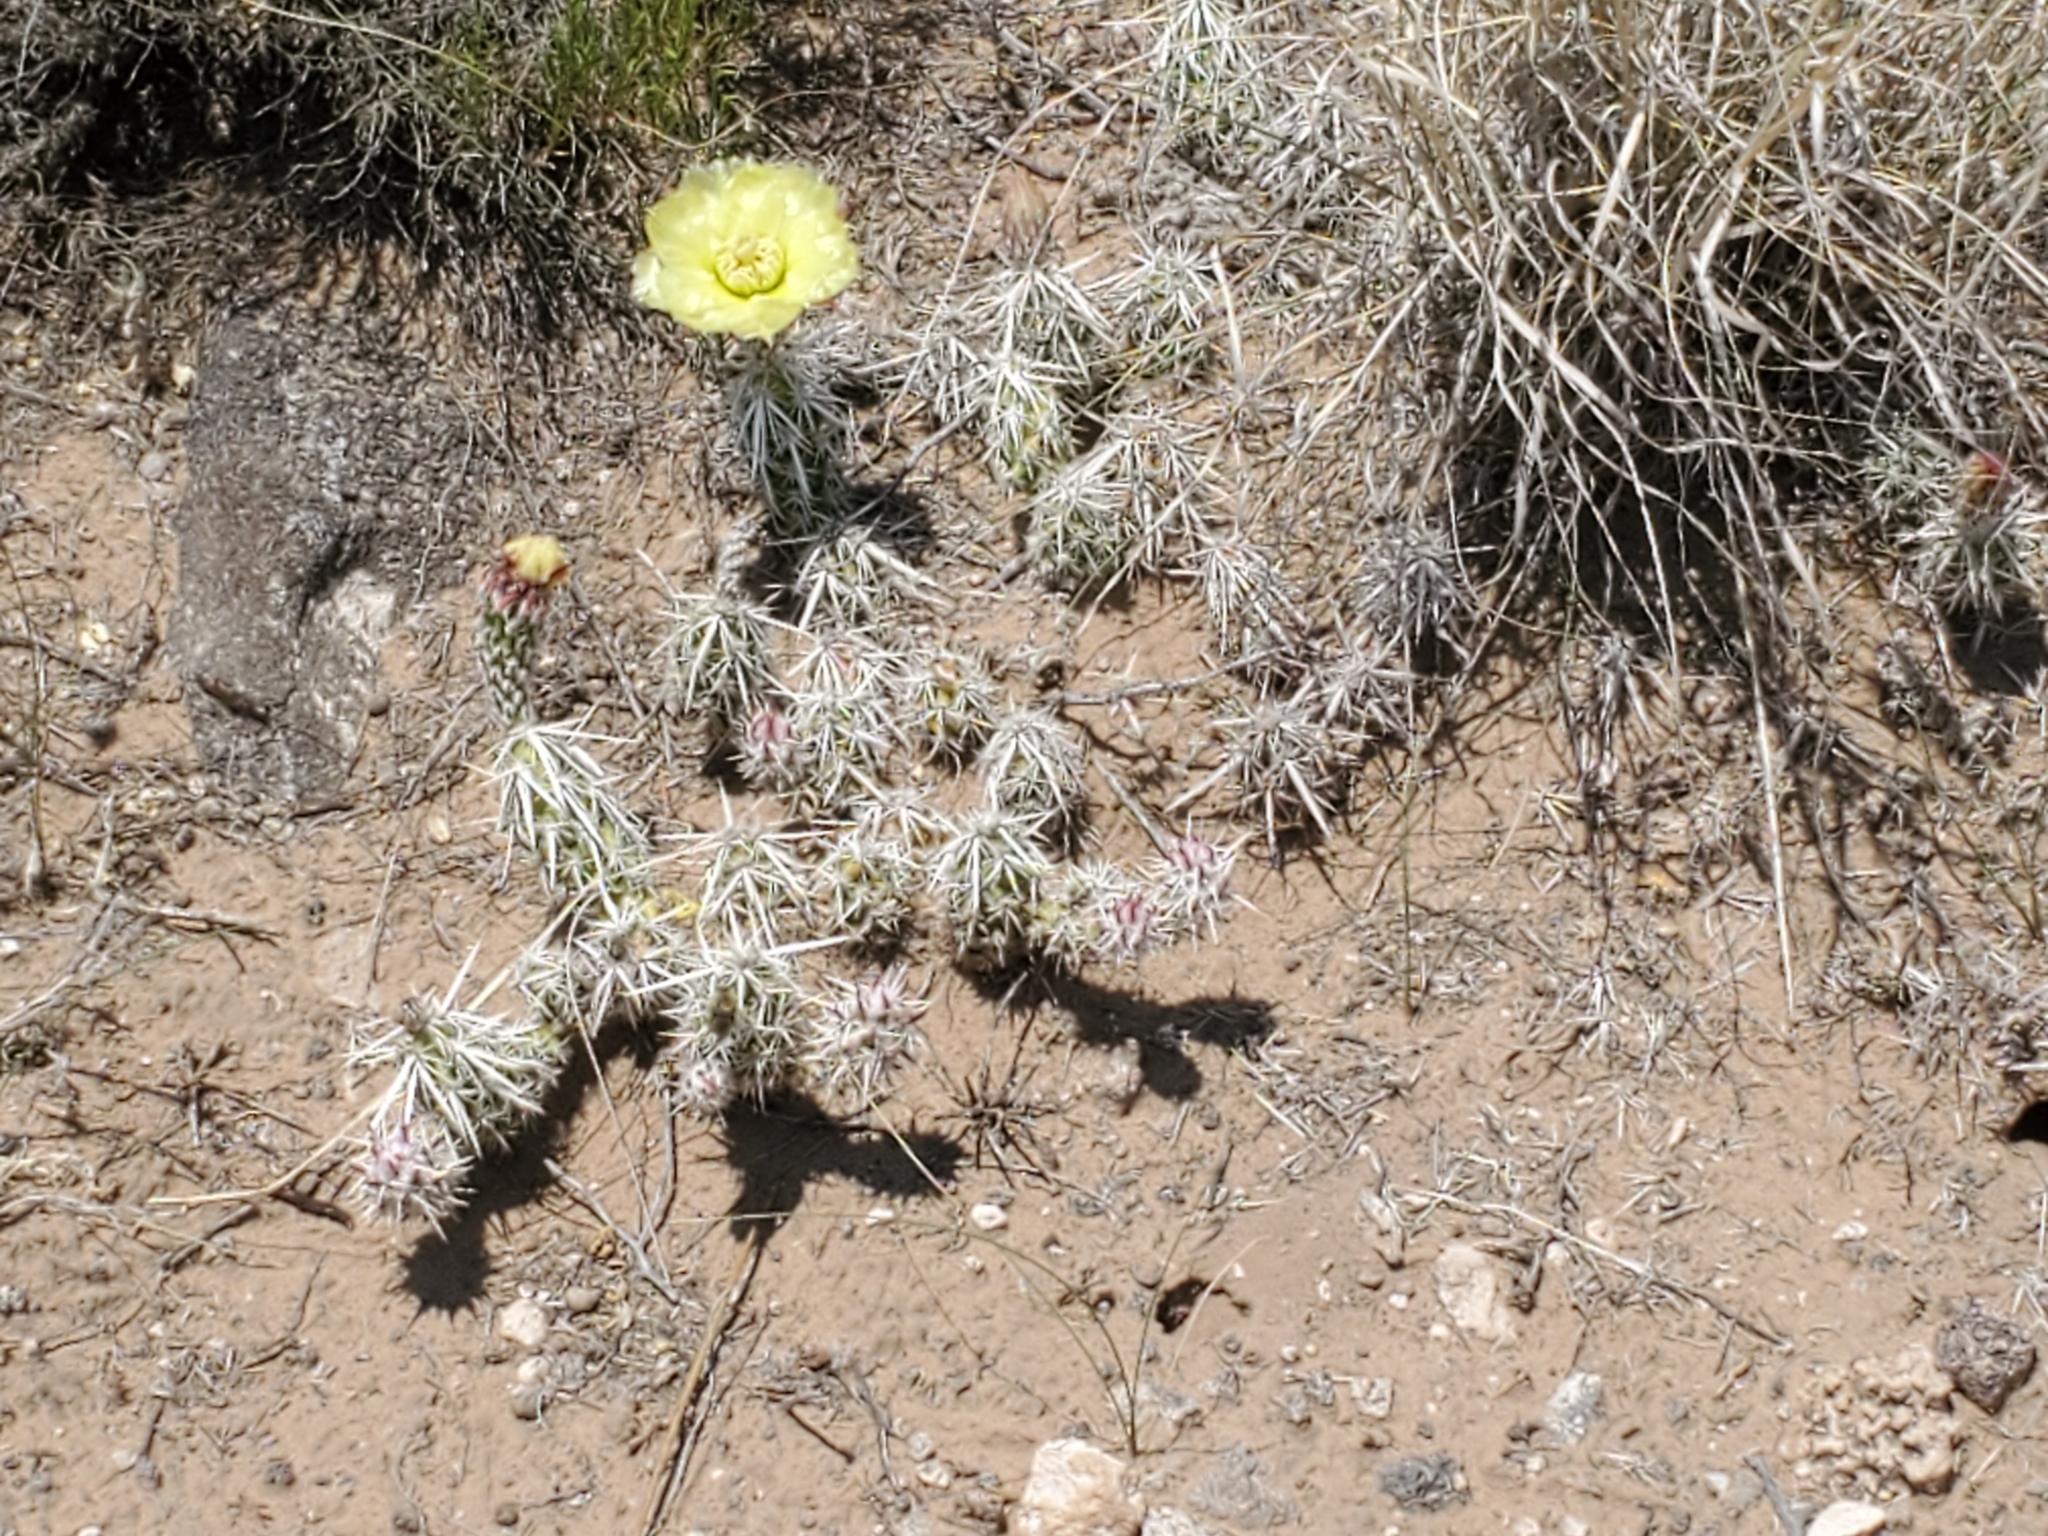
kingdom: Plantae
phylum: Tracheophyta
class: Magnoliopsida
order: Caryophyllales
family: Cactaceae
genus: Grusonia
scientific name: Grusonia clavata
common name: Club cholla
